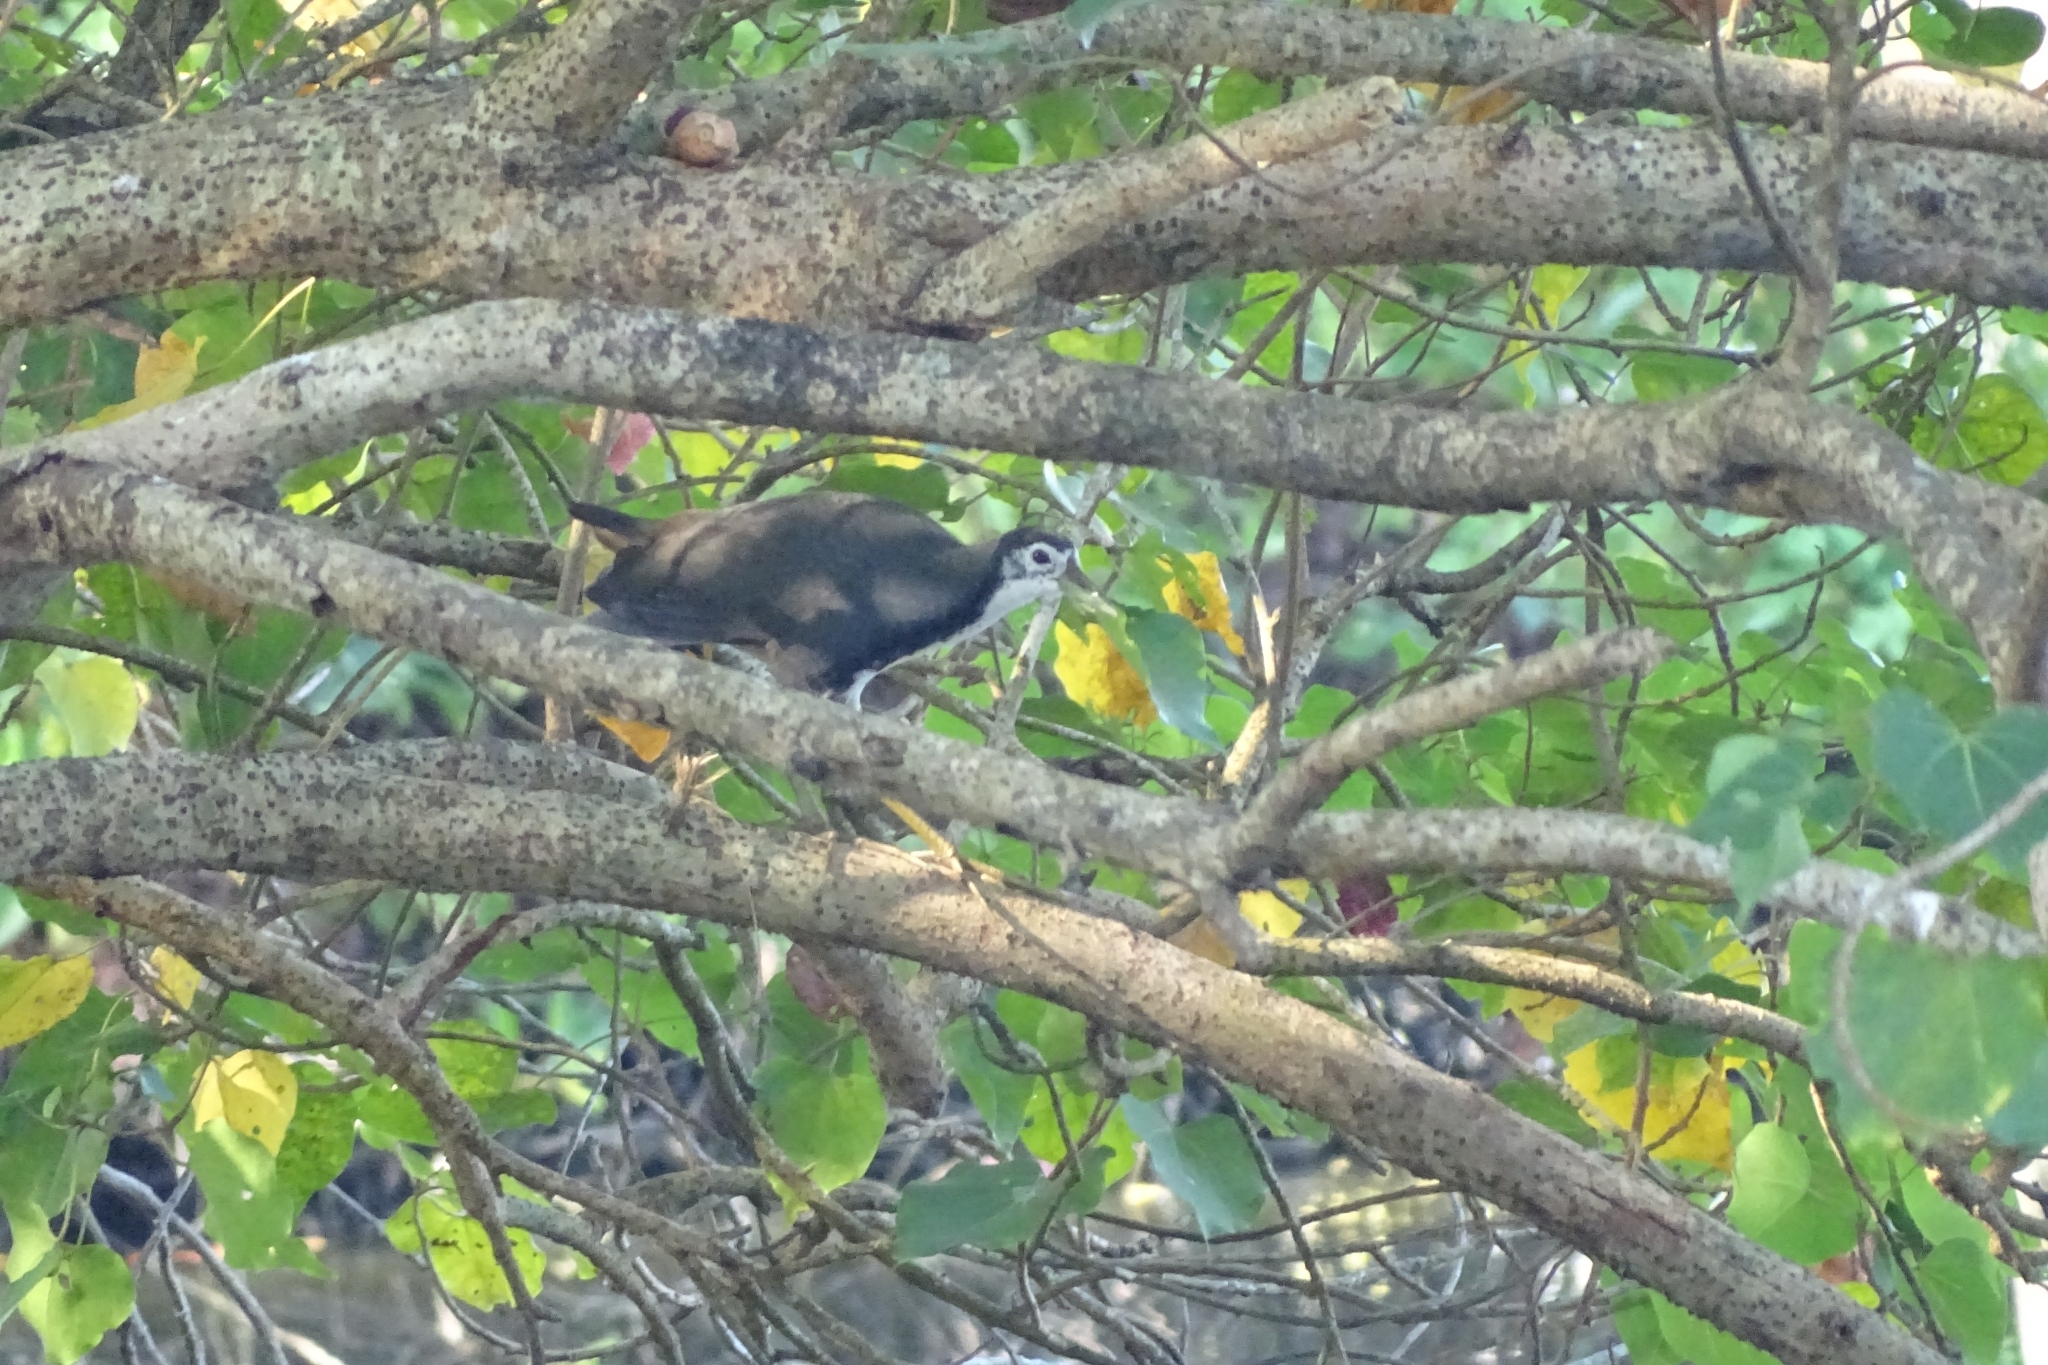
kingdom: Animalia
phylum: Chordata
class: Aves
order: Gruiformes
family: Rallidae
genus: Amaurornis
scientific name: Amaurornis phoenicurus
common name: White-breasted waterhen
